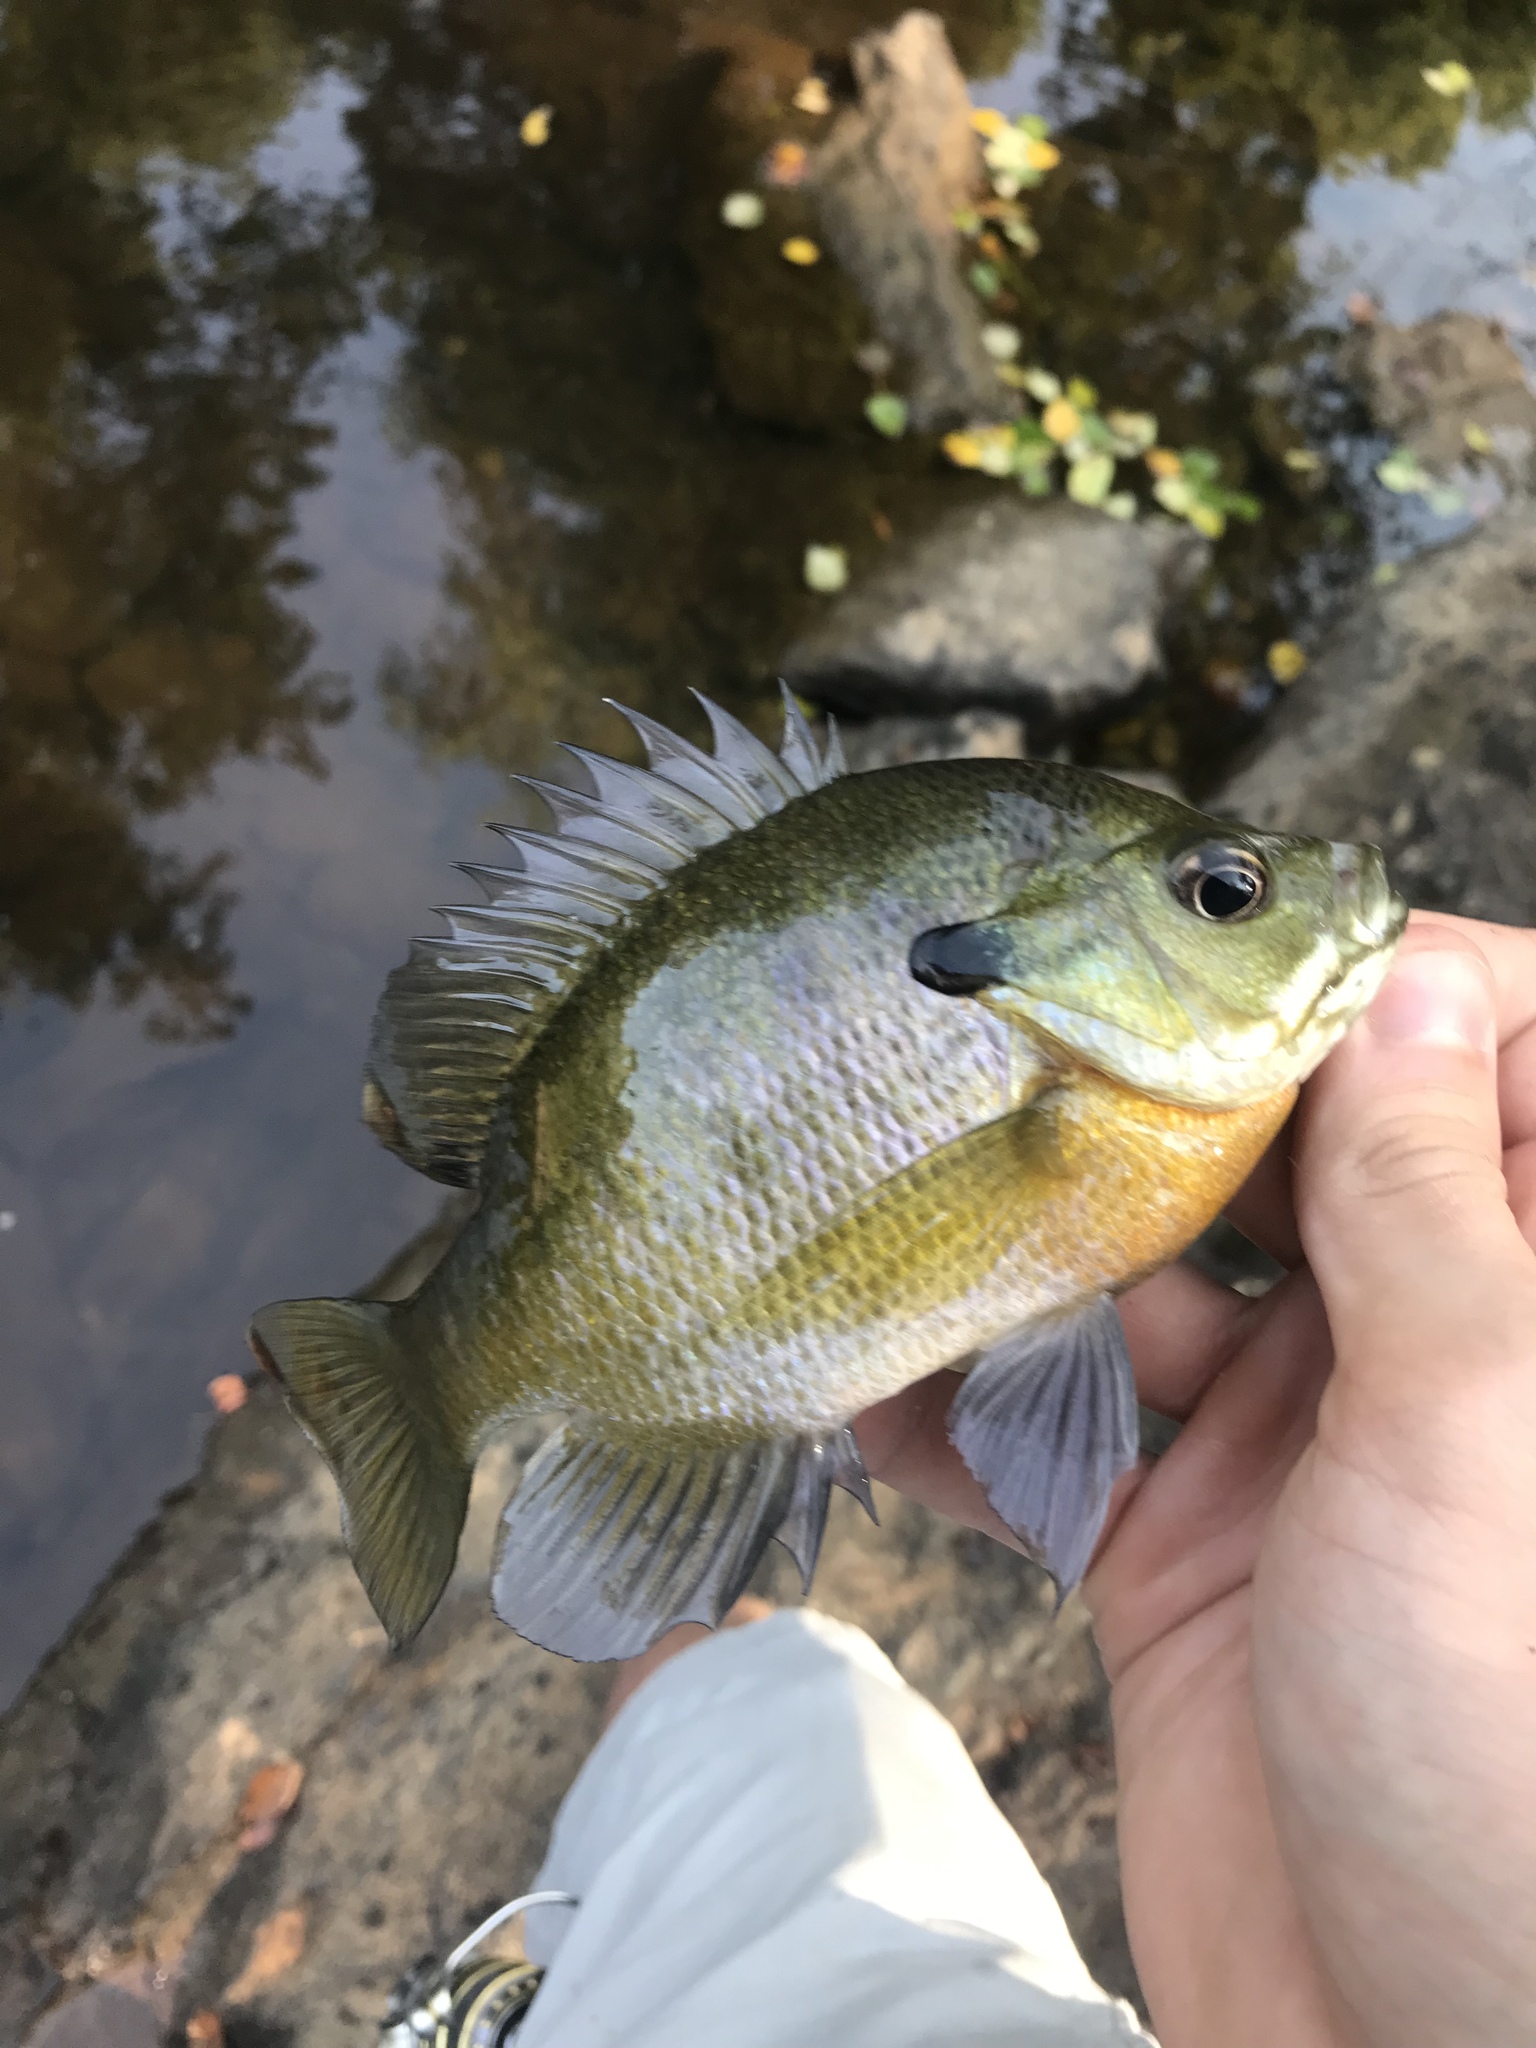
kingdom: Animalia
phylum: Chordata
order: Perciformes
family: Centrarchidae
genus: Lepomis
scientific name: Lepomis macrochirus
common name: Bluegill
